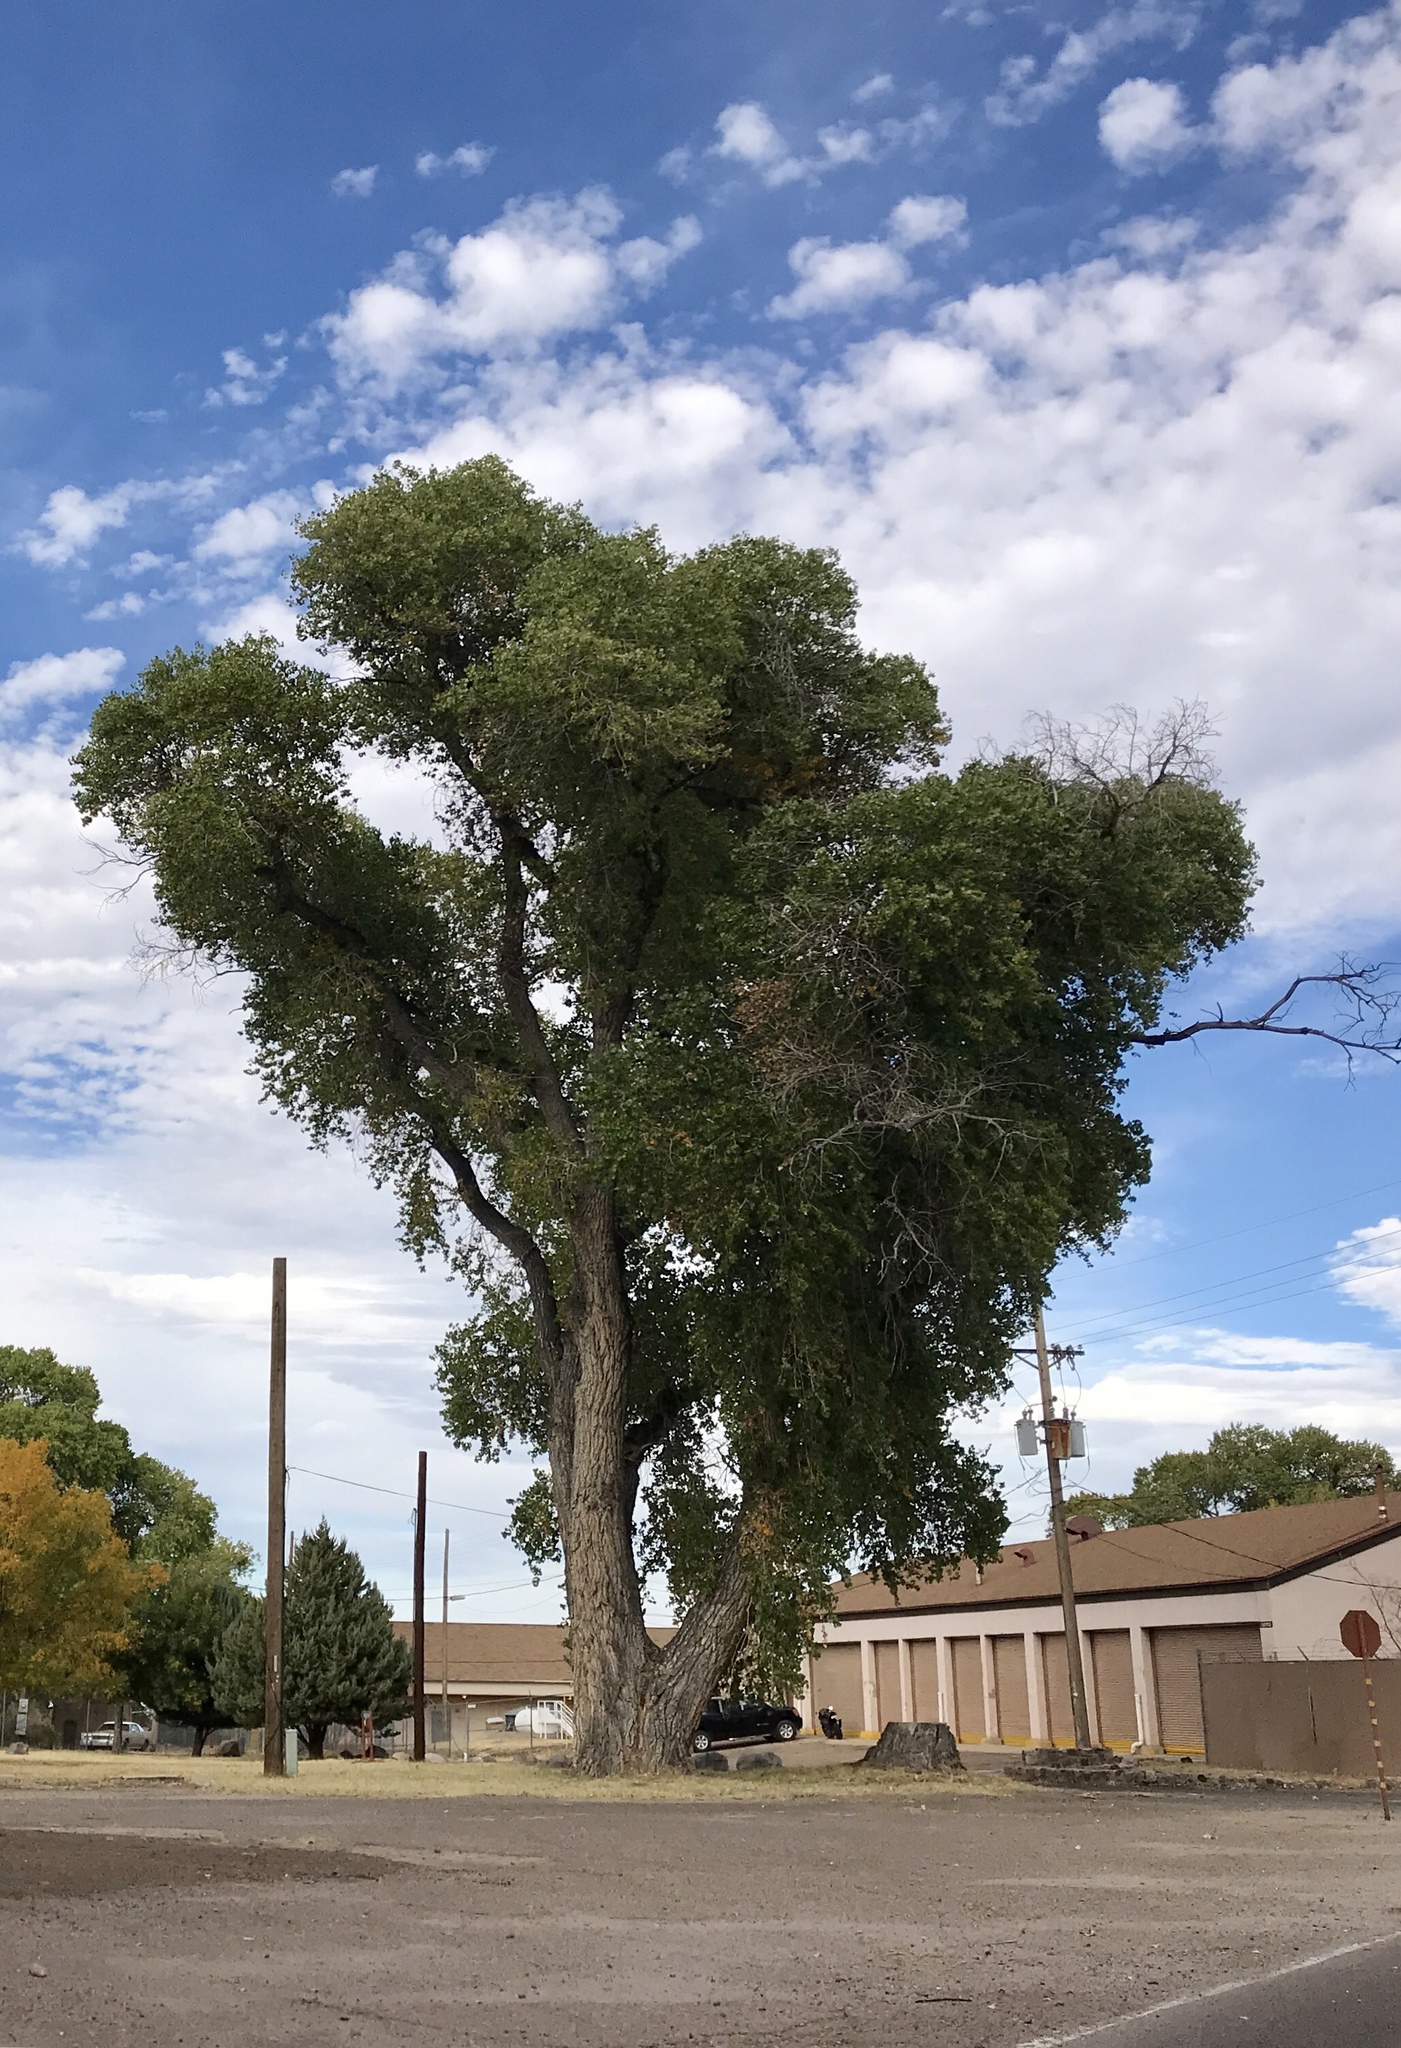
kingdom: Plantae
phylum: Tracheophyta
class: Magnoliopsida
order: Malpighiales
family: Salicaceae
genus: Populus
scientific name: Populus fremontii
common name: Fremont's cottonwood
